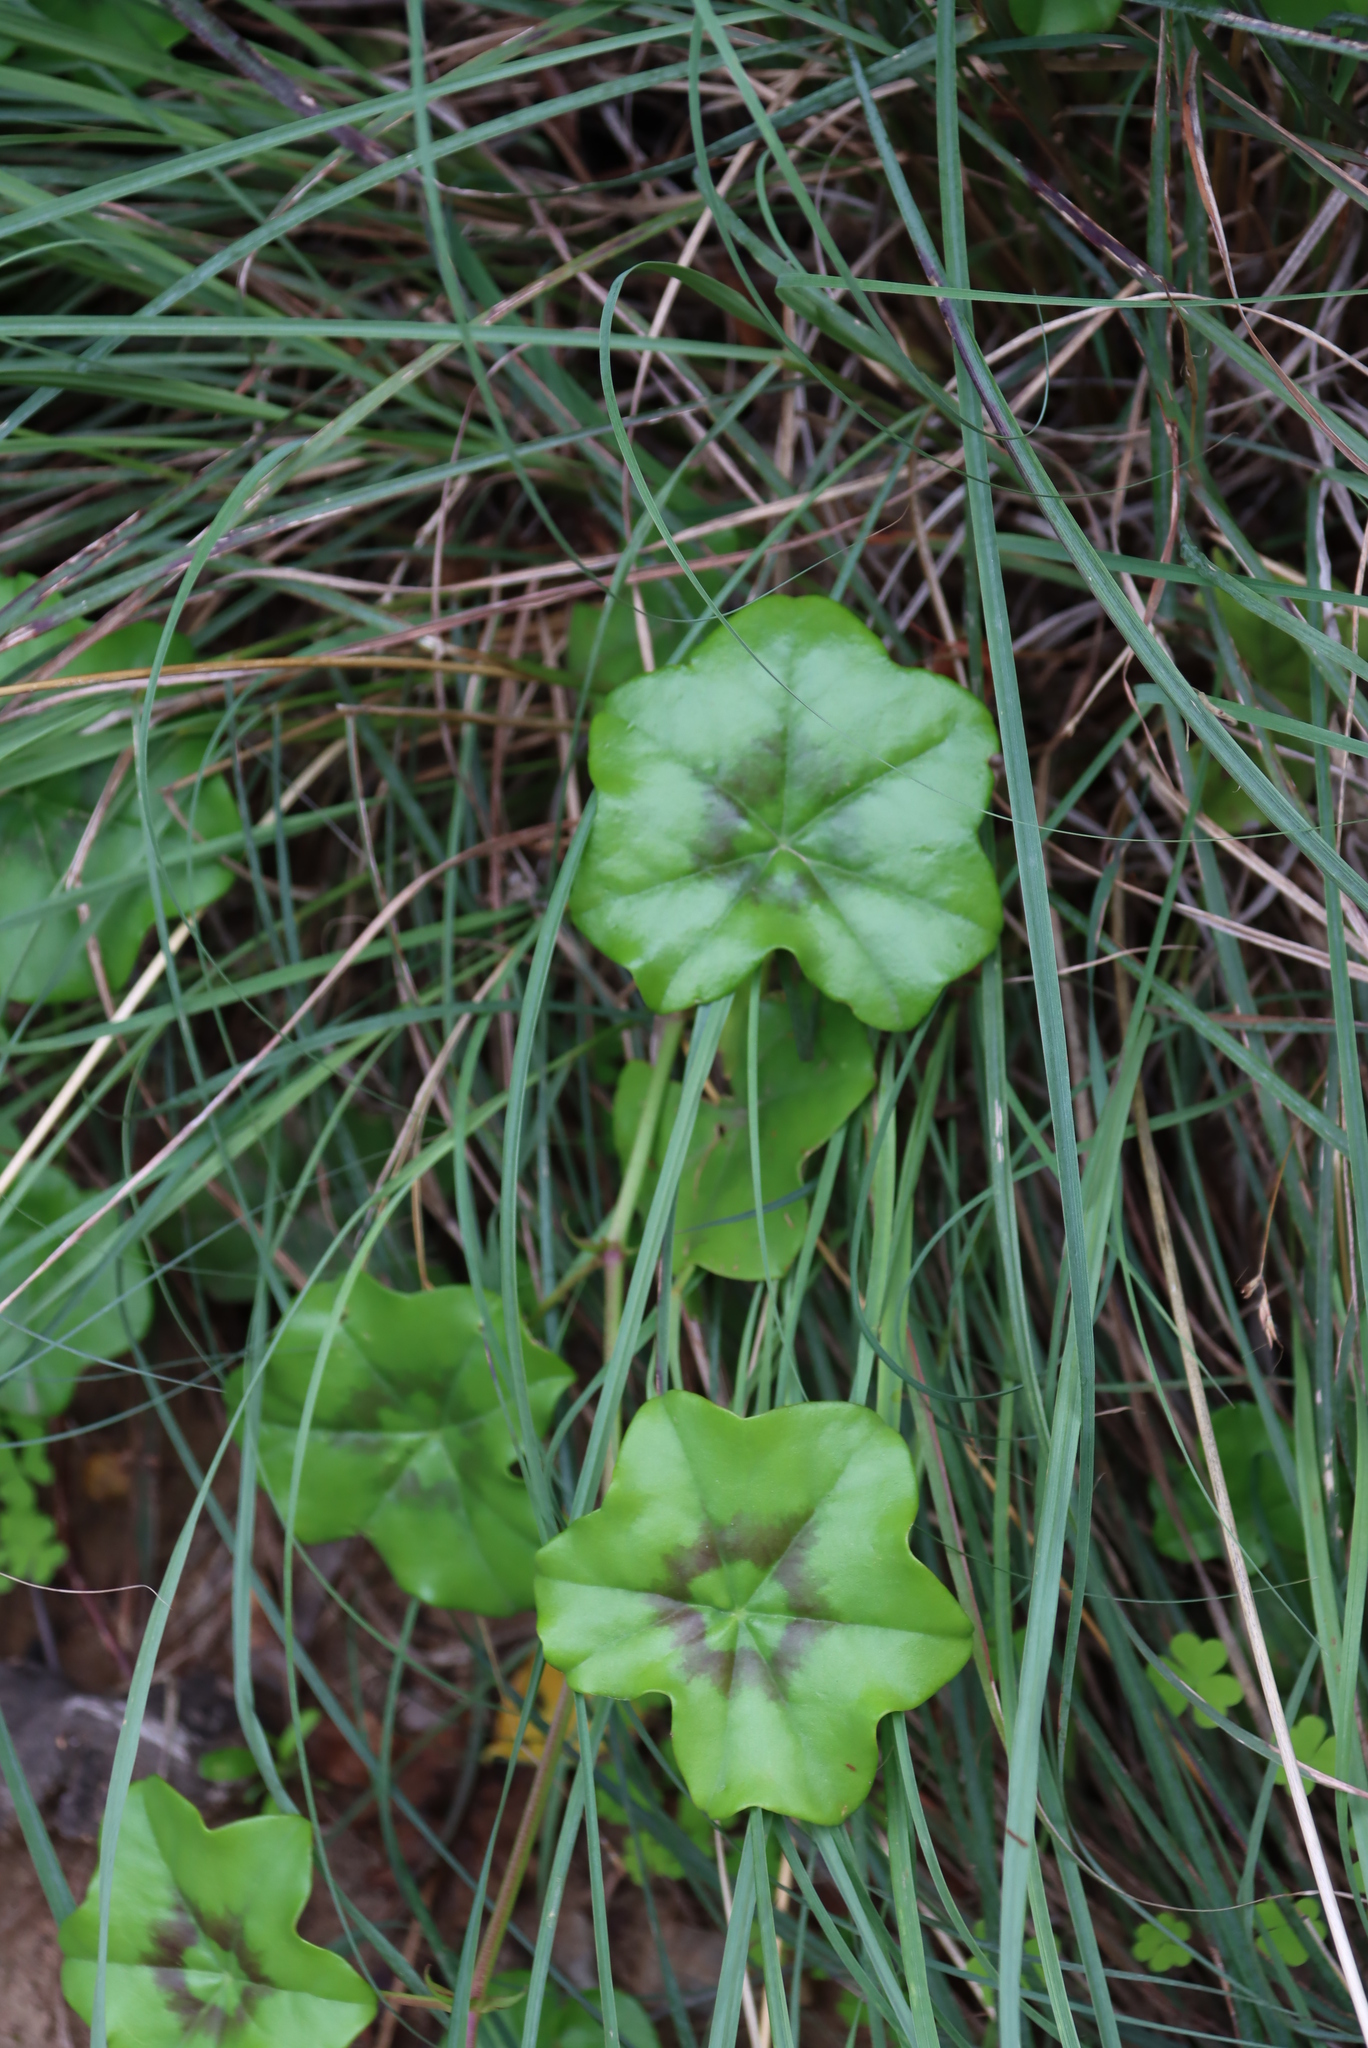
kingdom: Plantae
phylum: Tracheophyta
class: Magnoliopsida
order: Geraniales
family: Geraniaceae
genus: Pelargonium
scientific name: Pelargonium peltatum
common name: Ivyleaf geranium
